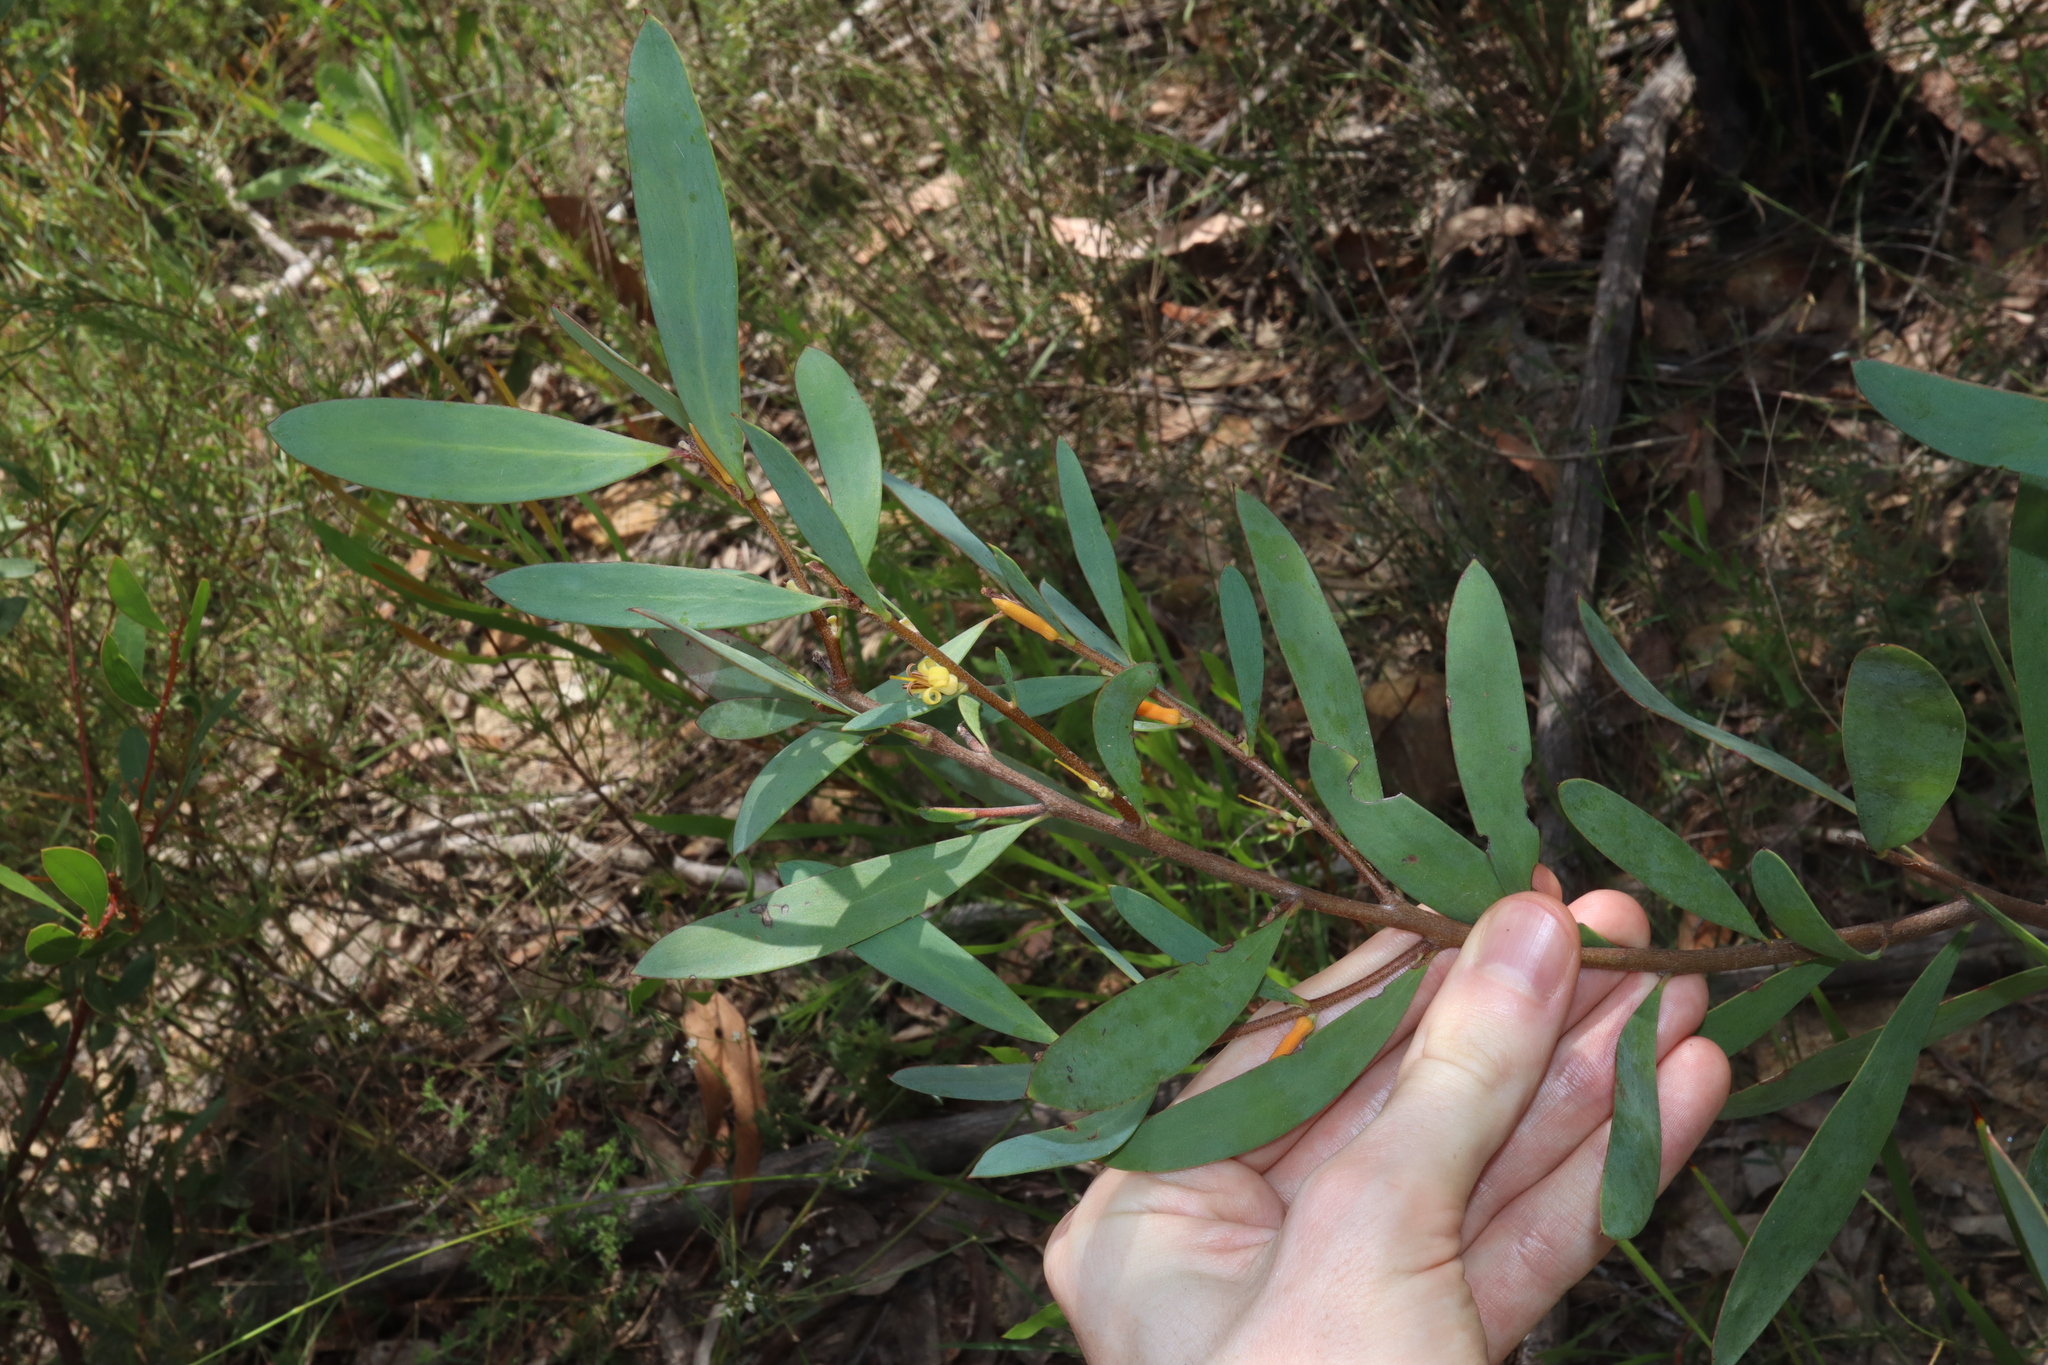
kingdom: Plantae
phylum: Tracheophyta
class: Magnoliopsida
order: Proteales
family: Proteaceae
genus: Persoonia
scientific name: Persoonia glaucescens
